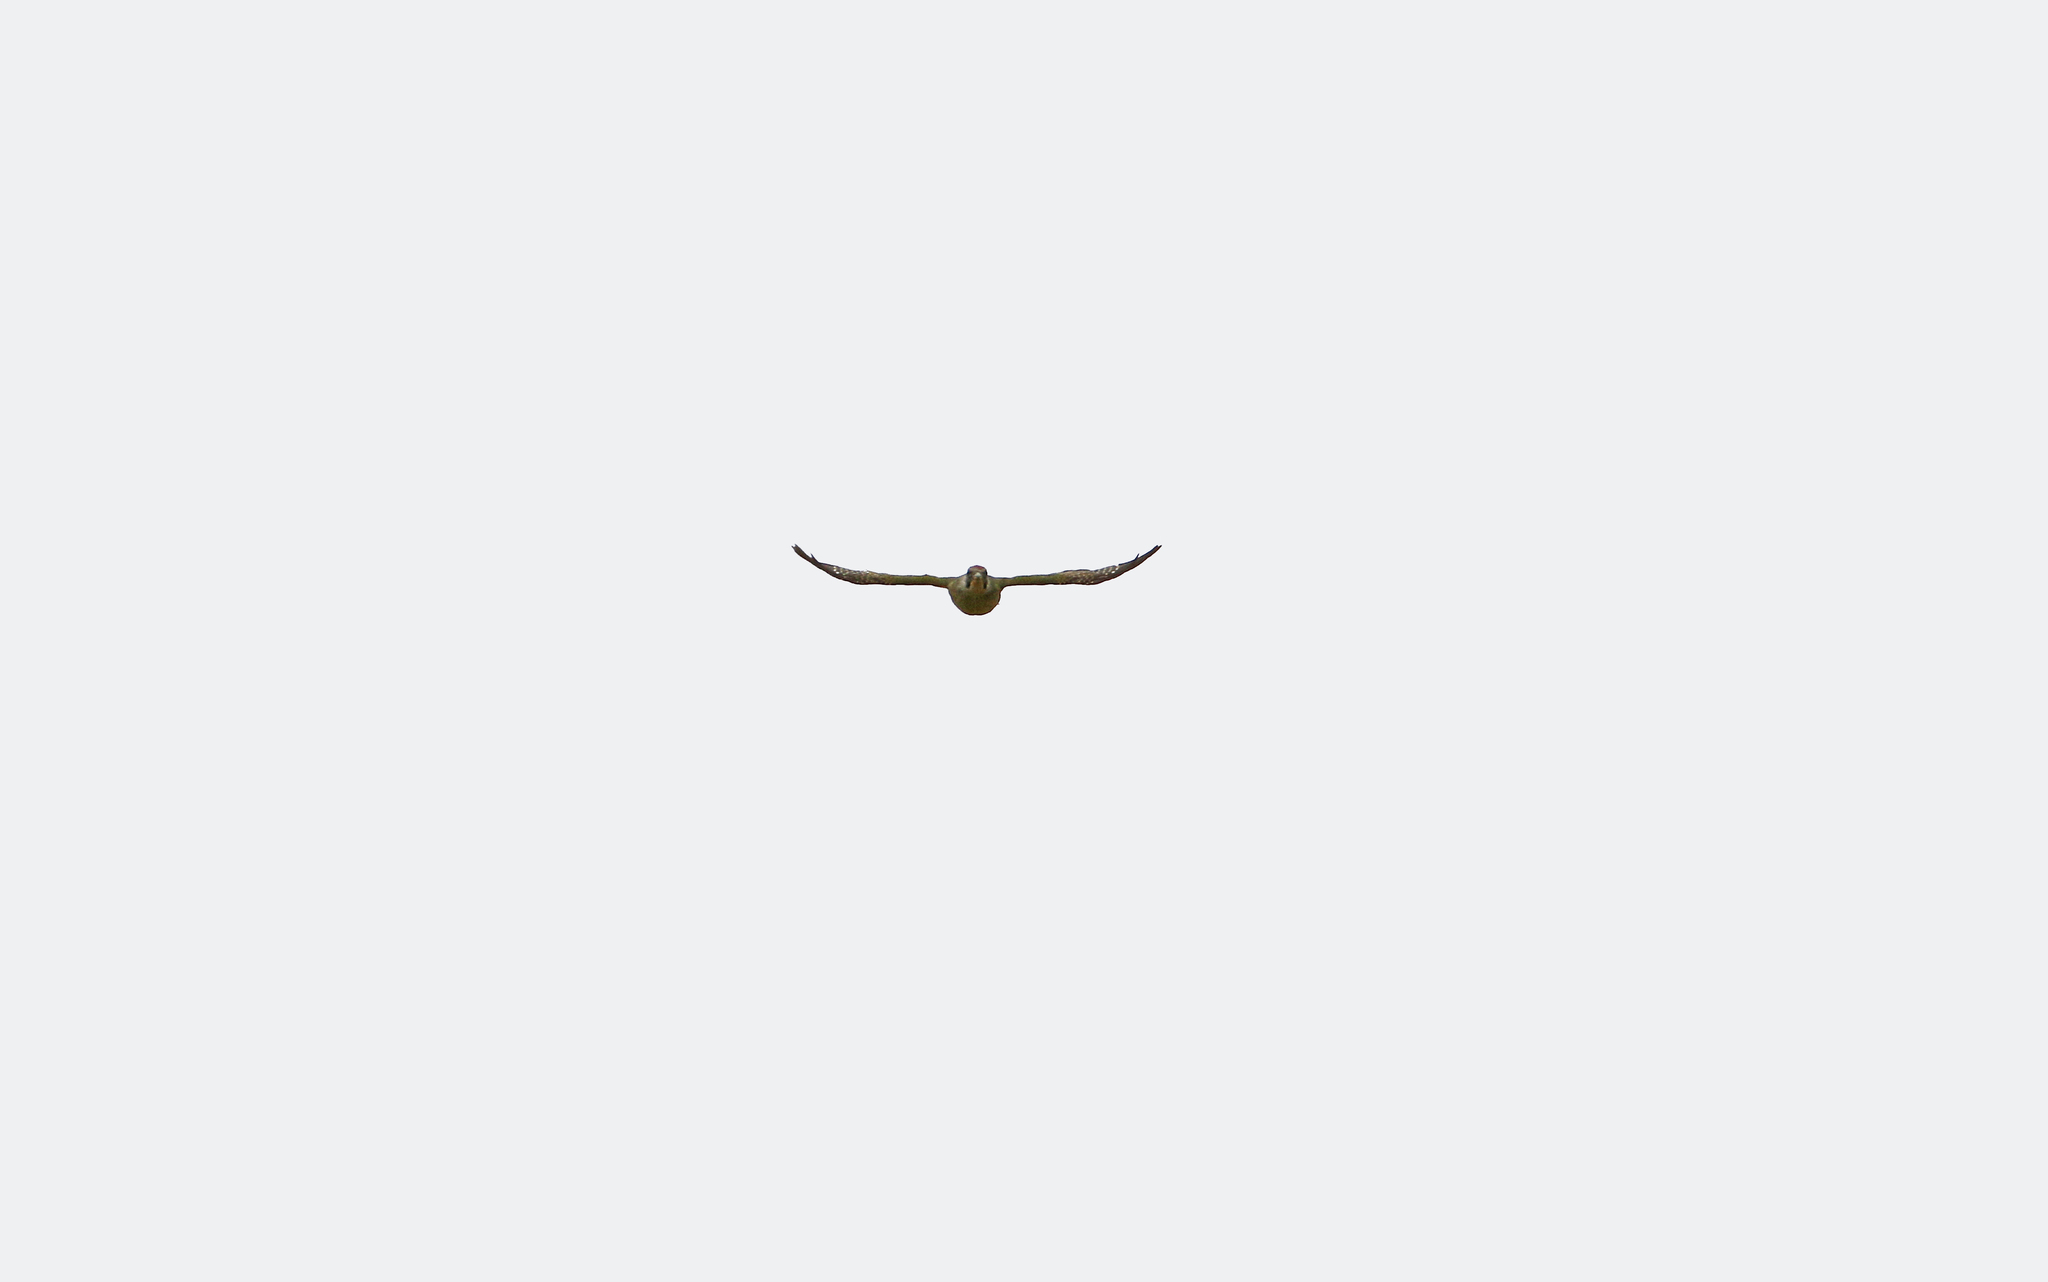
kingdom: Animalia
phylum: Chordata
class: Aves
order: Piciformes
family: Picidae
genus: Picus
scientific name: Picus sharpei
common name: Iberian green woodpecker
